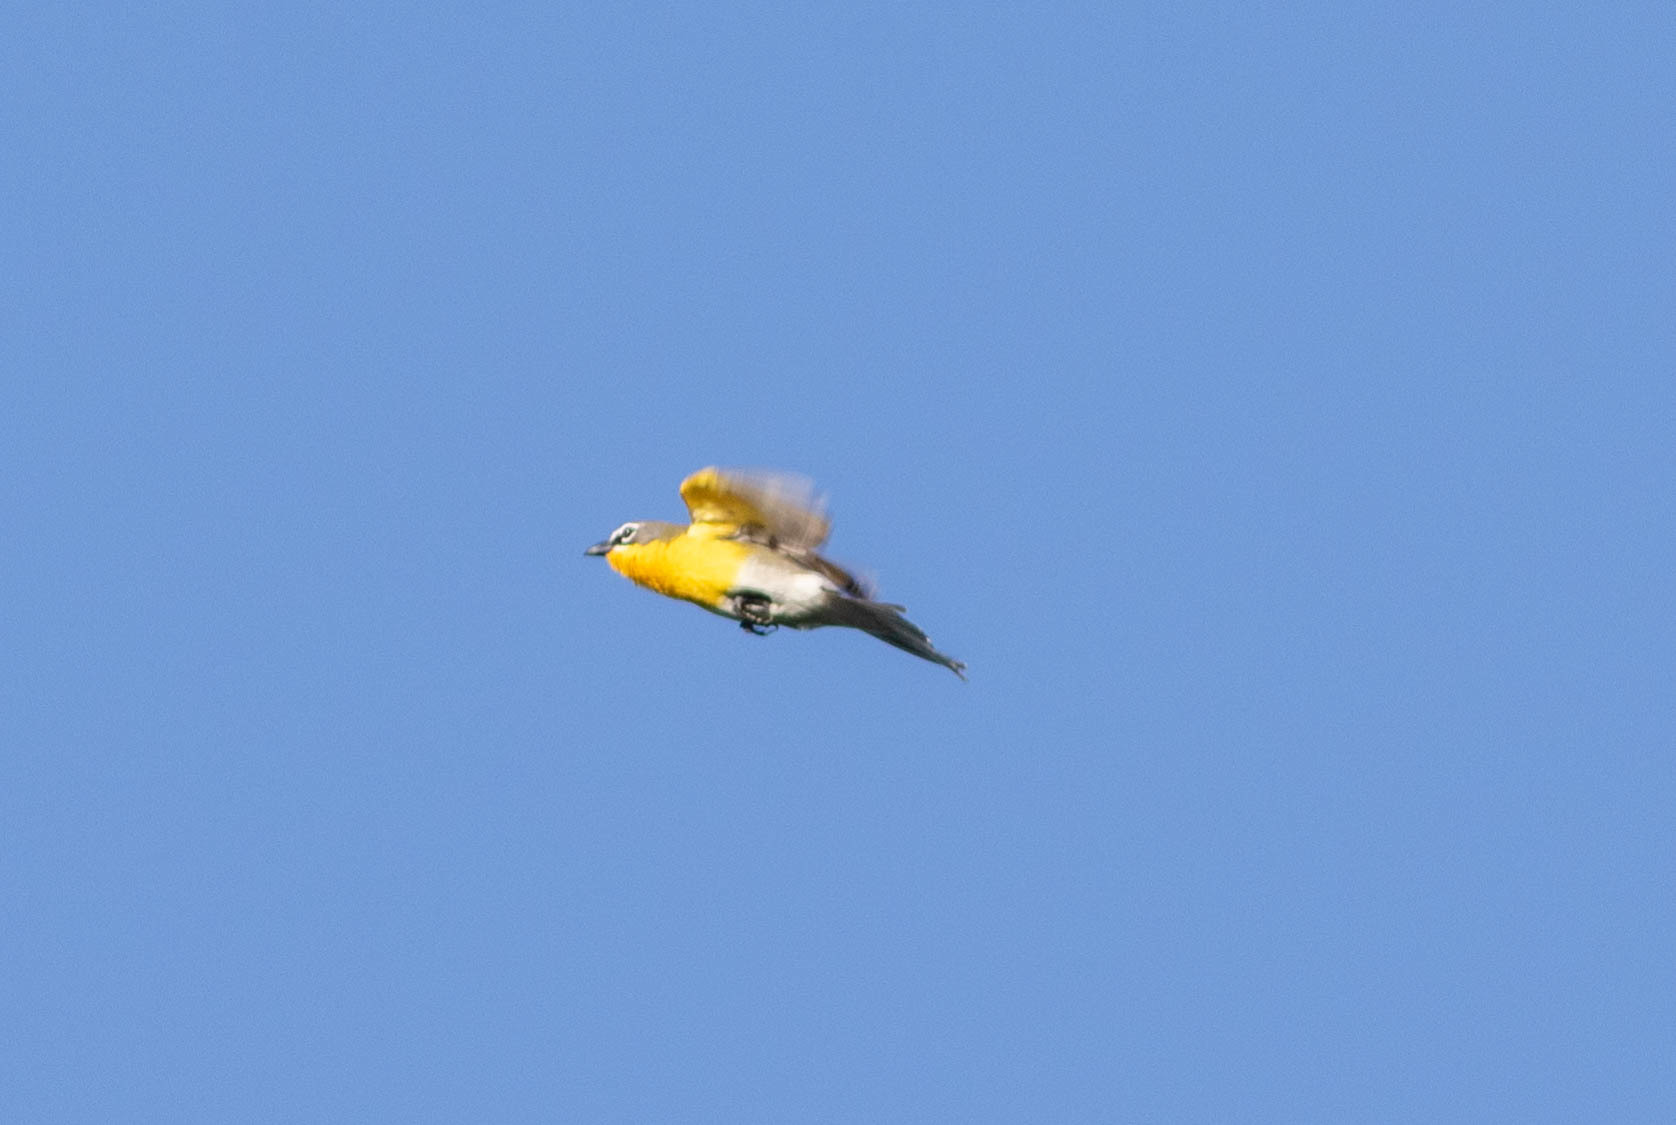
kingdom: Animalia
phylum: Chordata
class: Aves
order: Passeriformes
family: Parulidae
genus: Icteria
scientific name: Icteria virens
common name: Yellow-breasted chat
